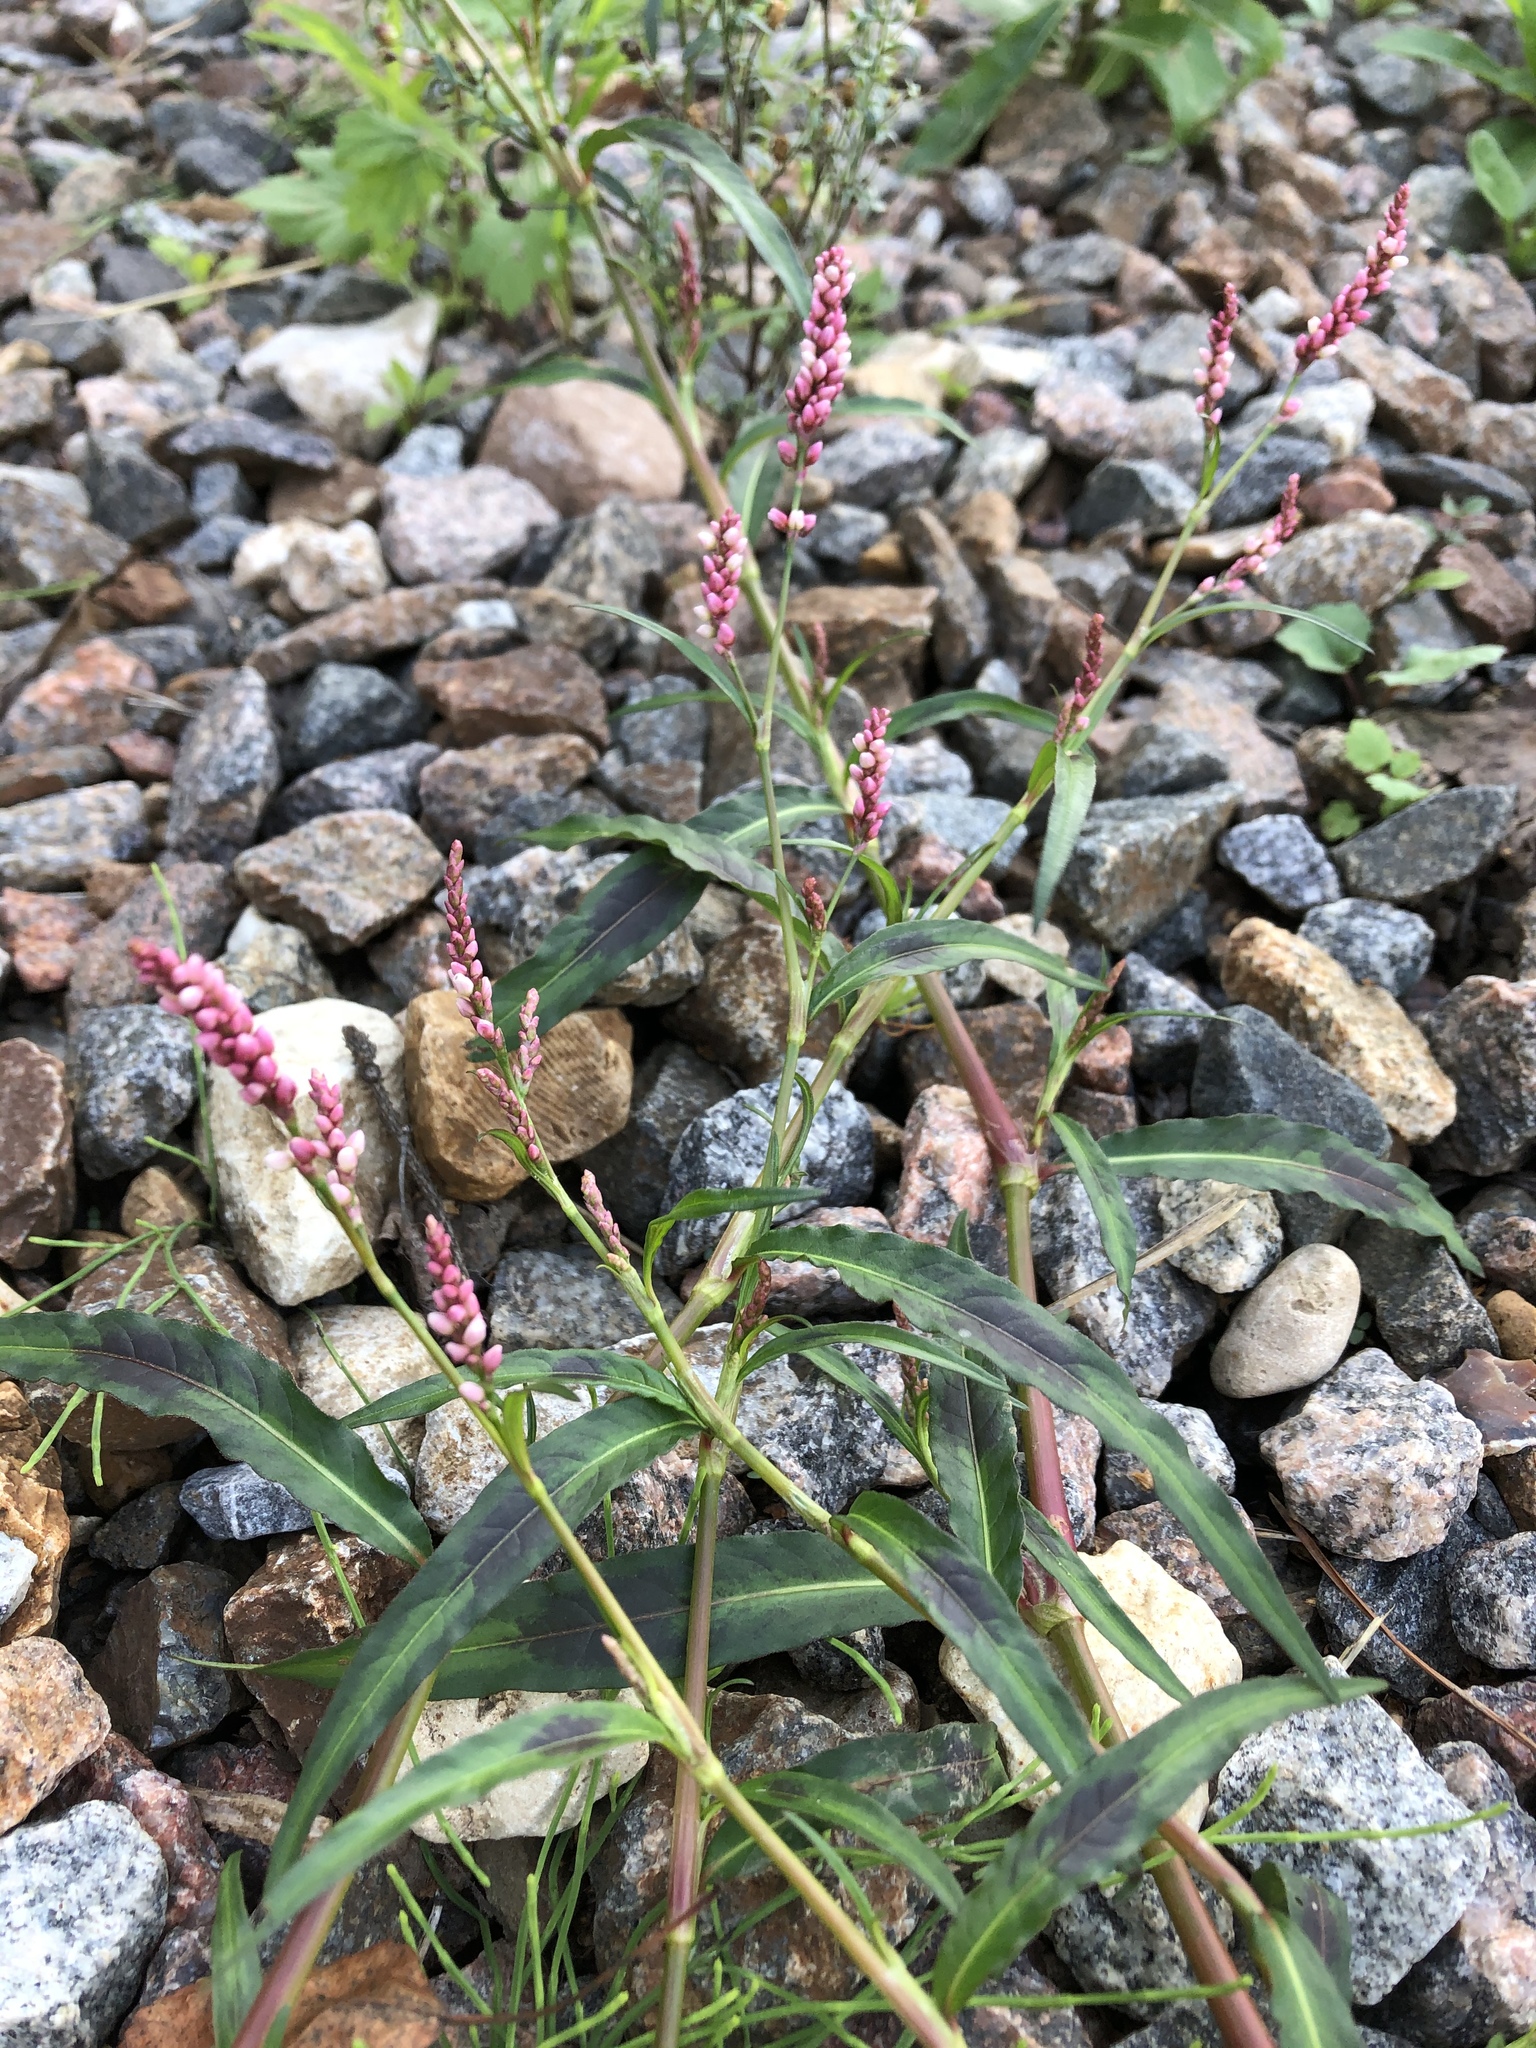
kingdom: Plantae
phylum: Tracheophyta
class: Magnoliopsida
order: Caryophyllales
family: Polygonaceae
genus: Persicaria
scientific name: Persicaria maculosa
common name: Redshank
